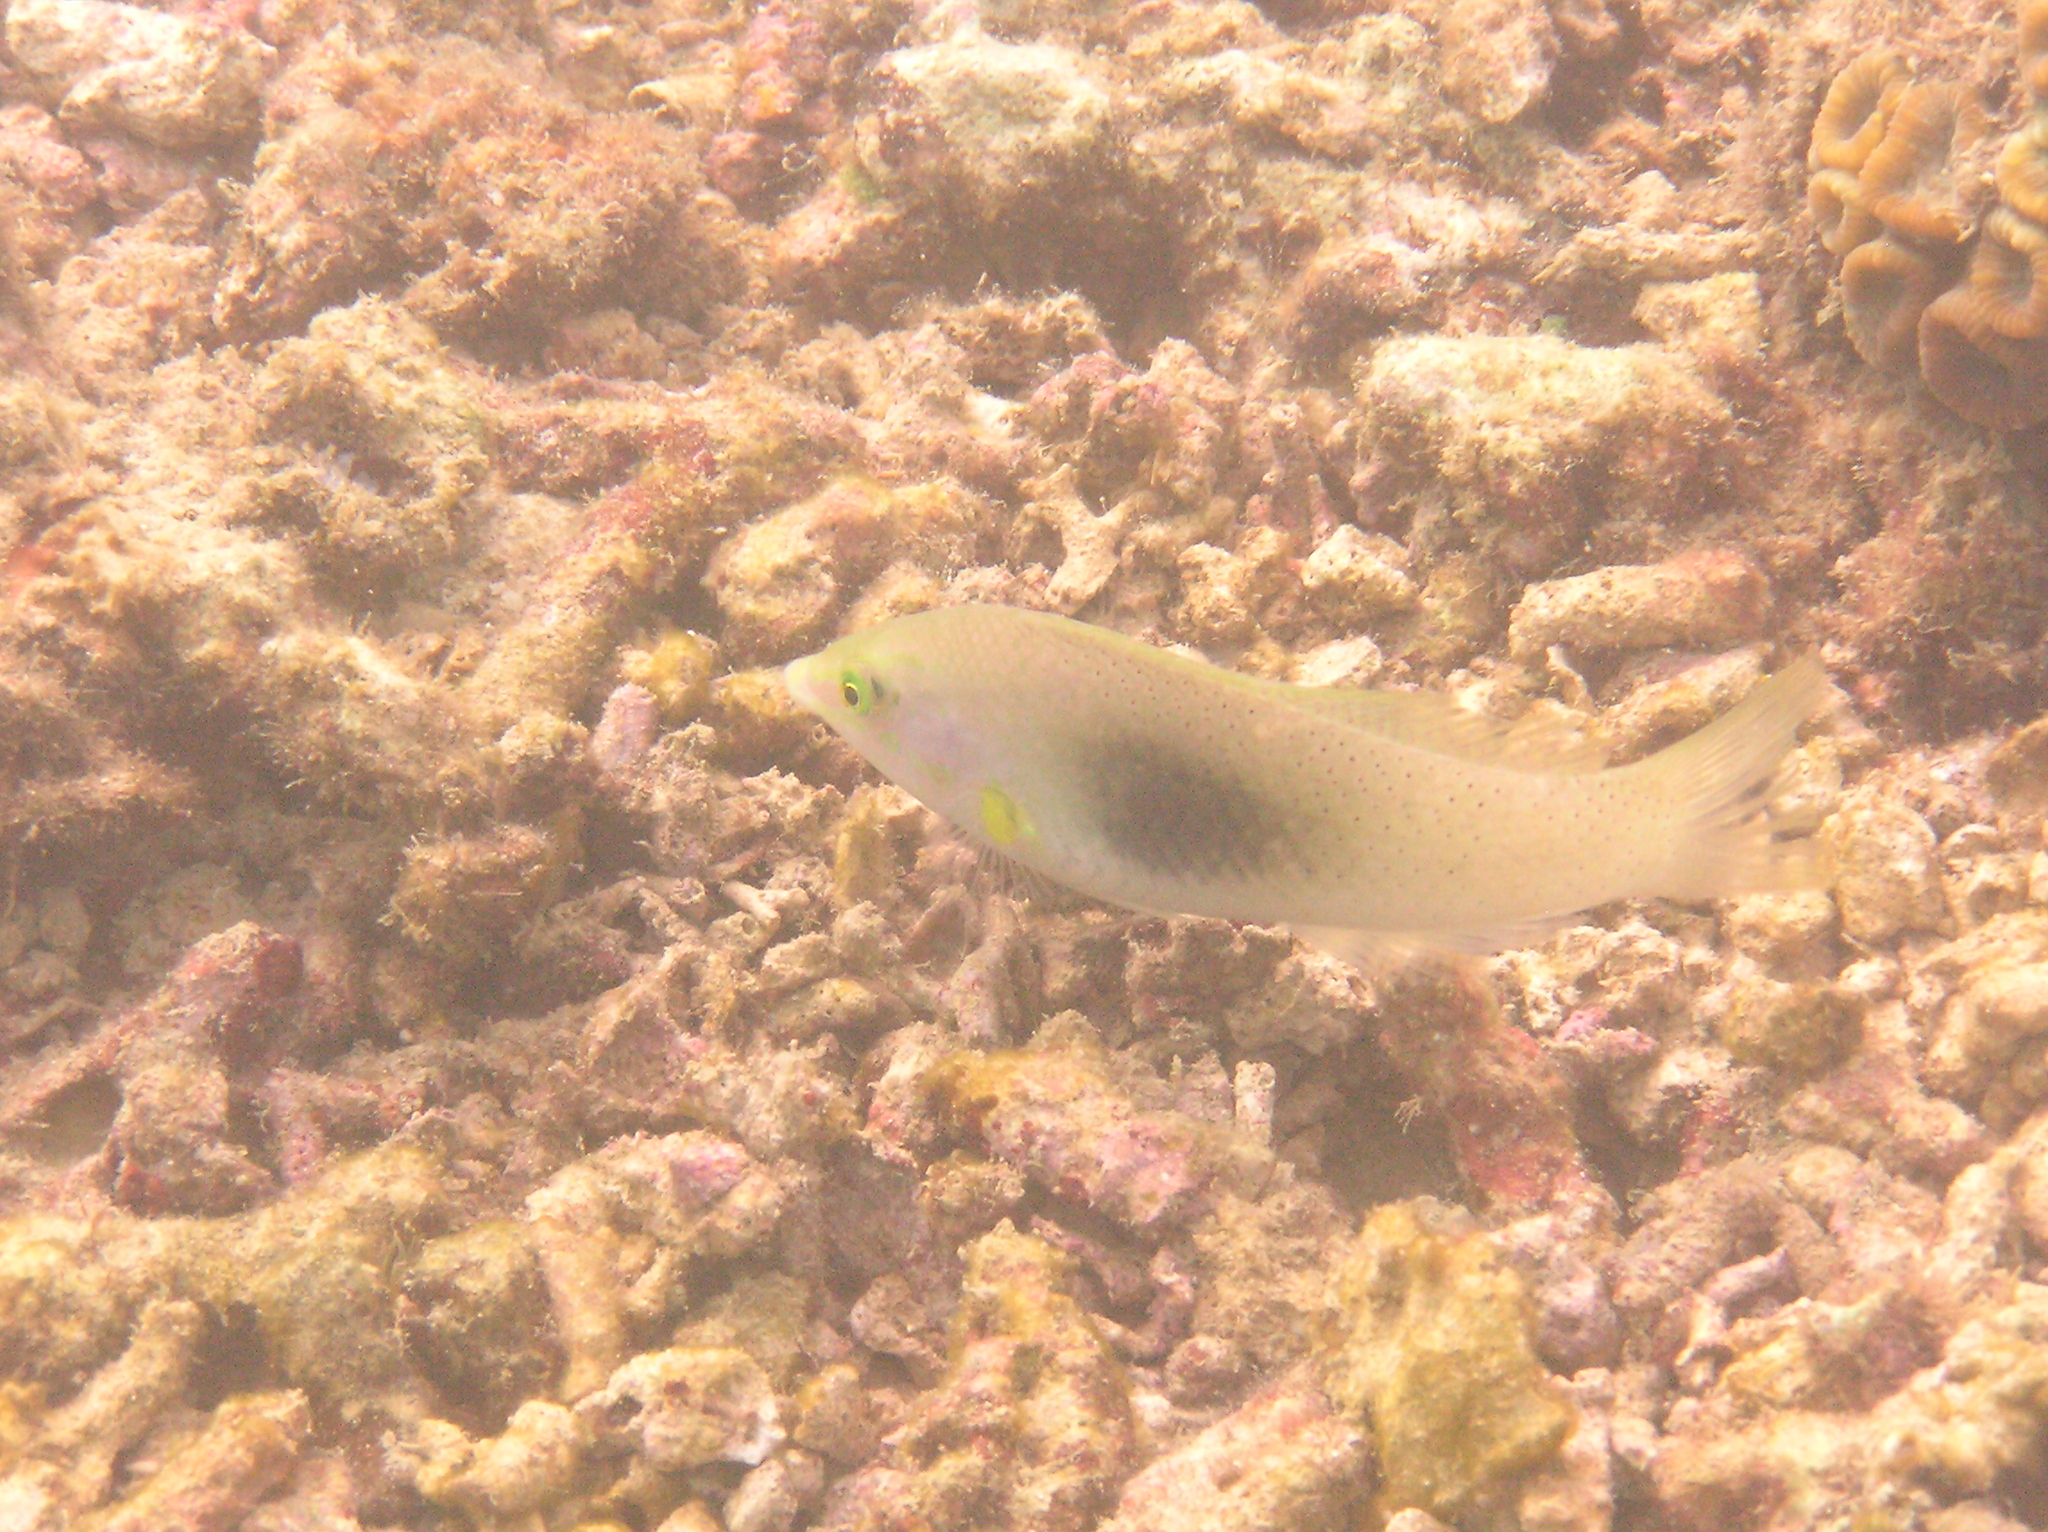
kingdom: Animalia
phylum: Chordata
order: Perciformes
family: Labridae
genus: Halichoeres
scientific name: Halichoeres chloropterus
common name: Pastel-green wrasse
